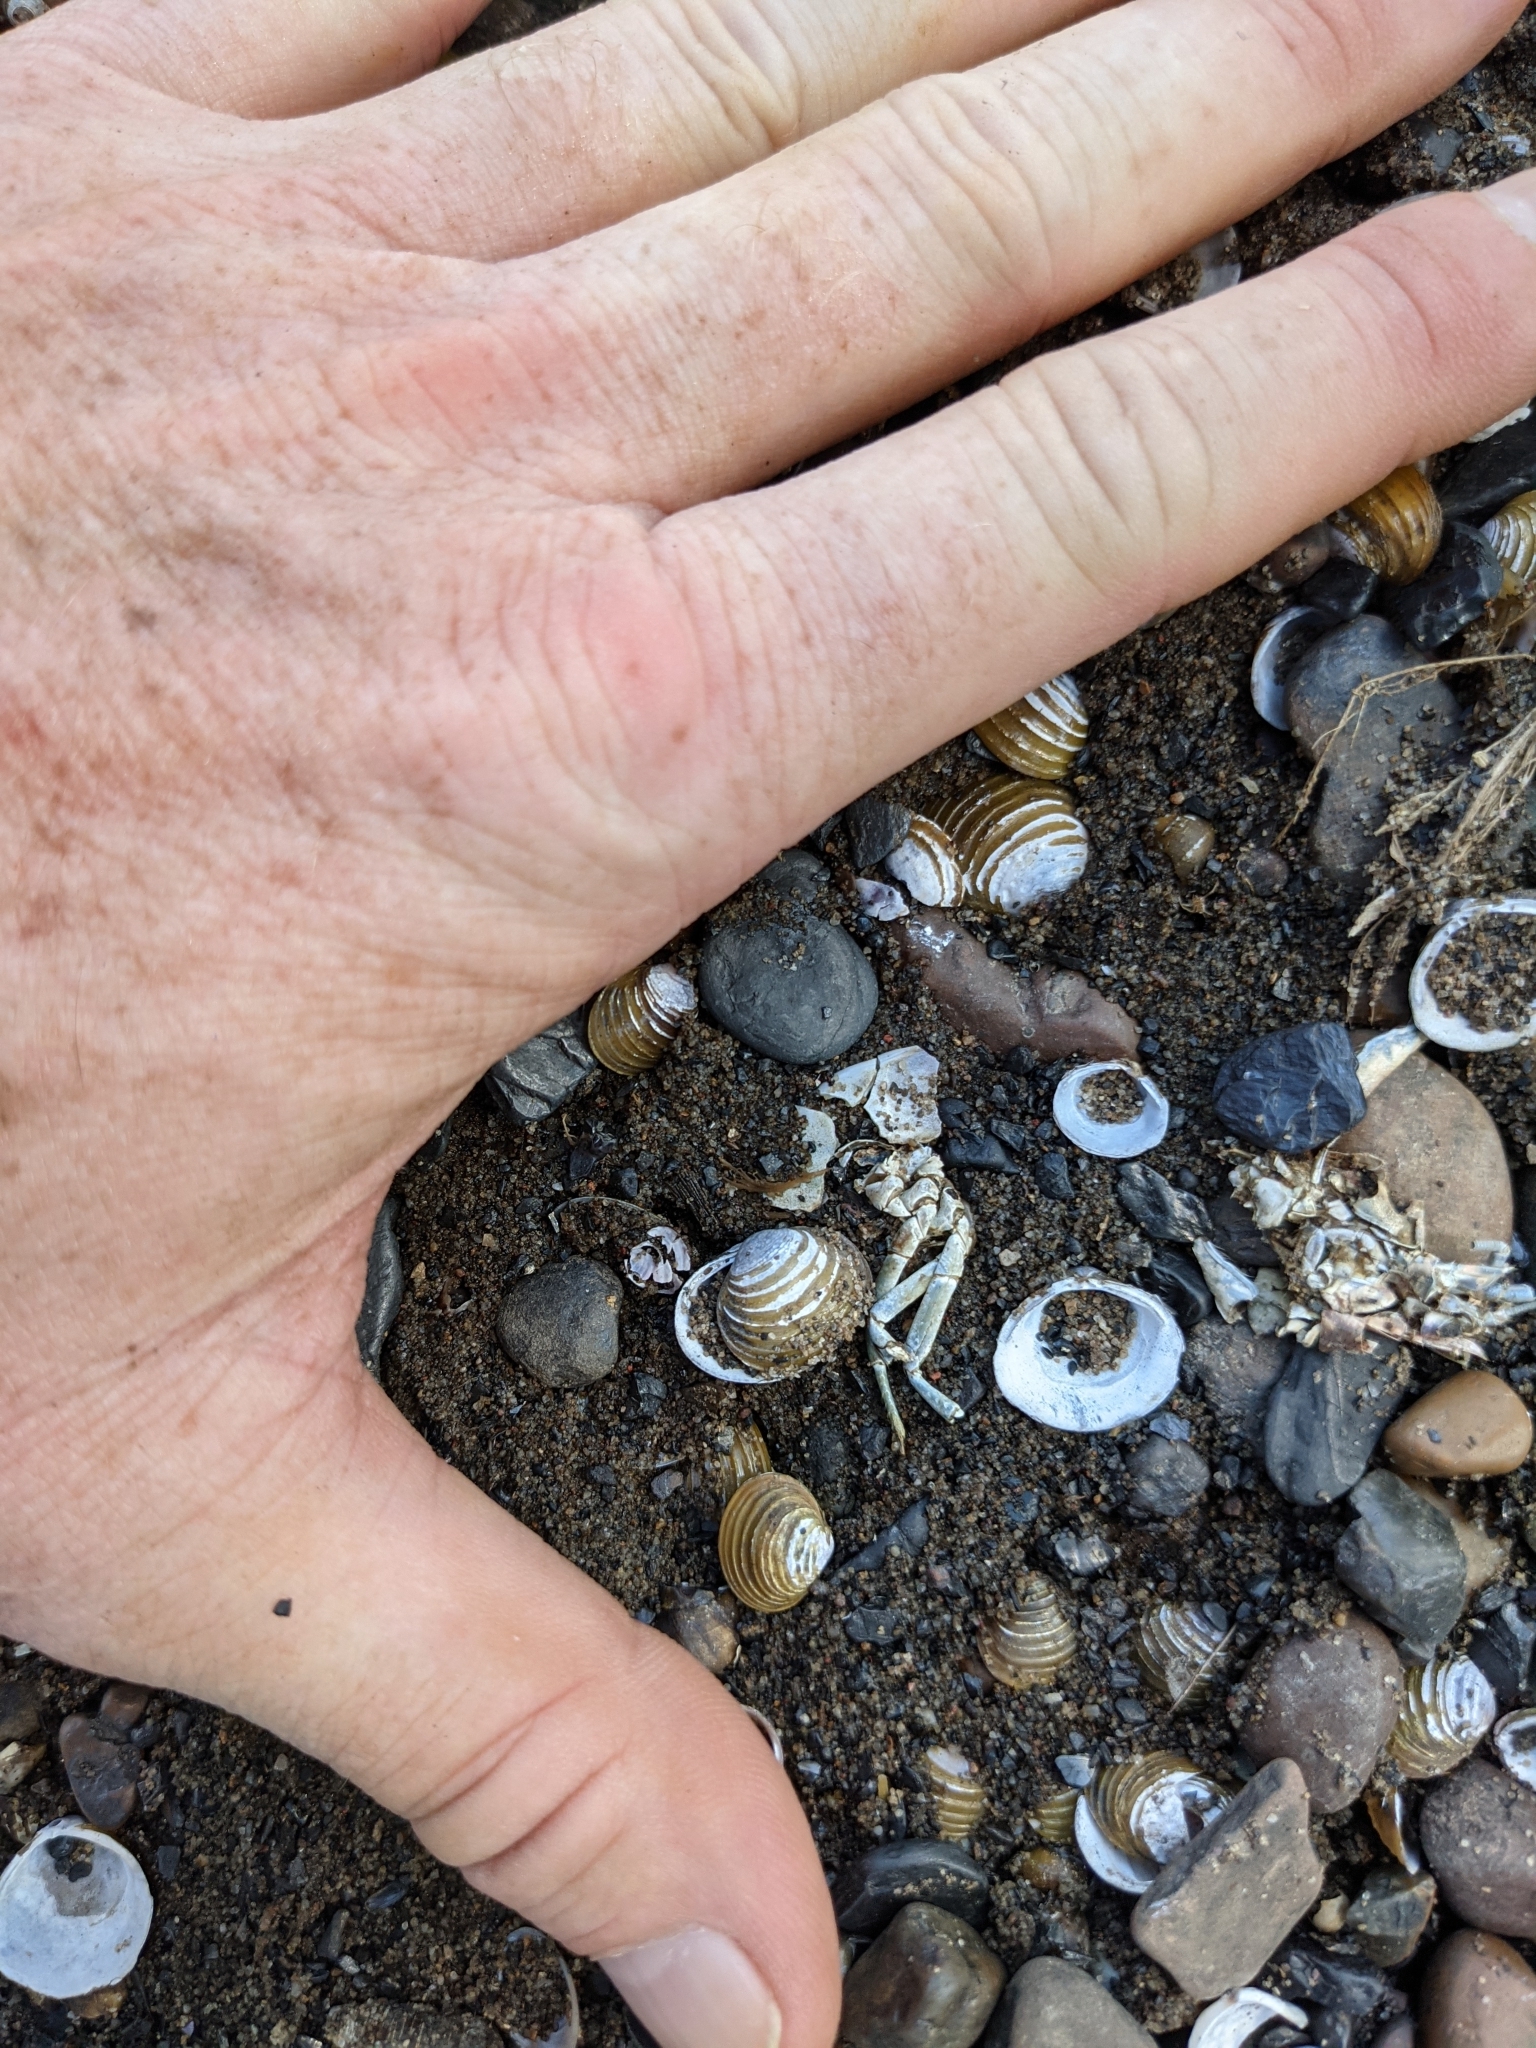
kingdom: Animalia
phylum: Mollusca
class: Bivalvia
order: Venerida
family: Cyrenidae
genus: Corbicula
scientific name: Corbicula fluminea
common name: Asian clam
